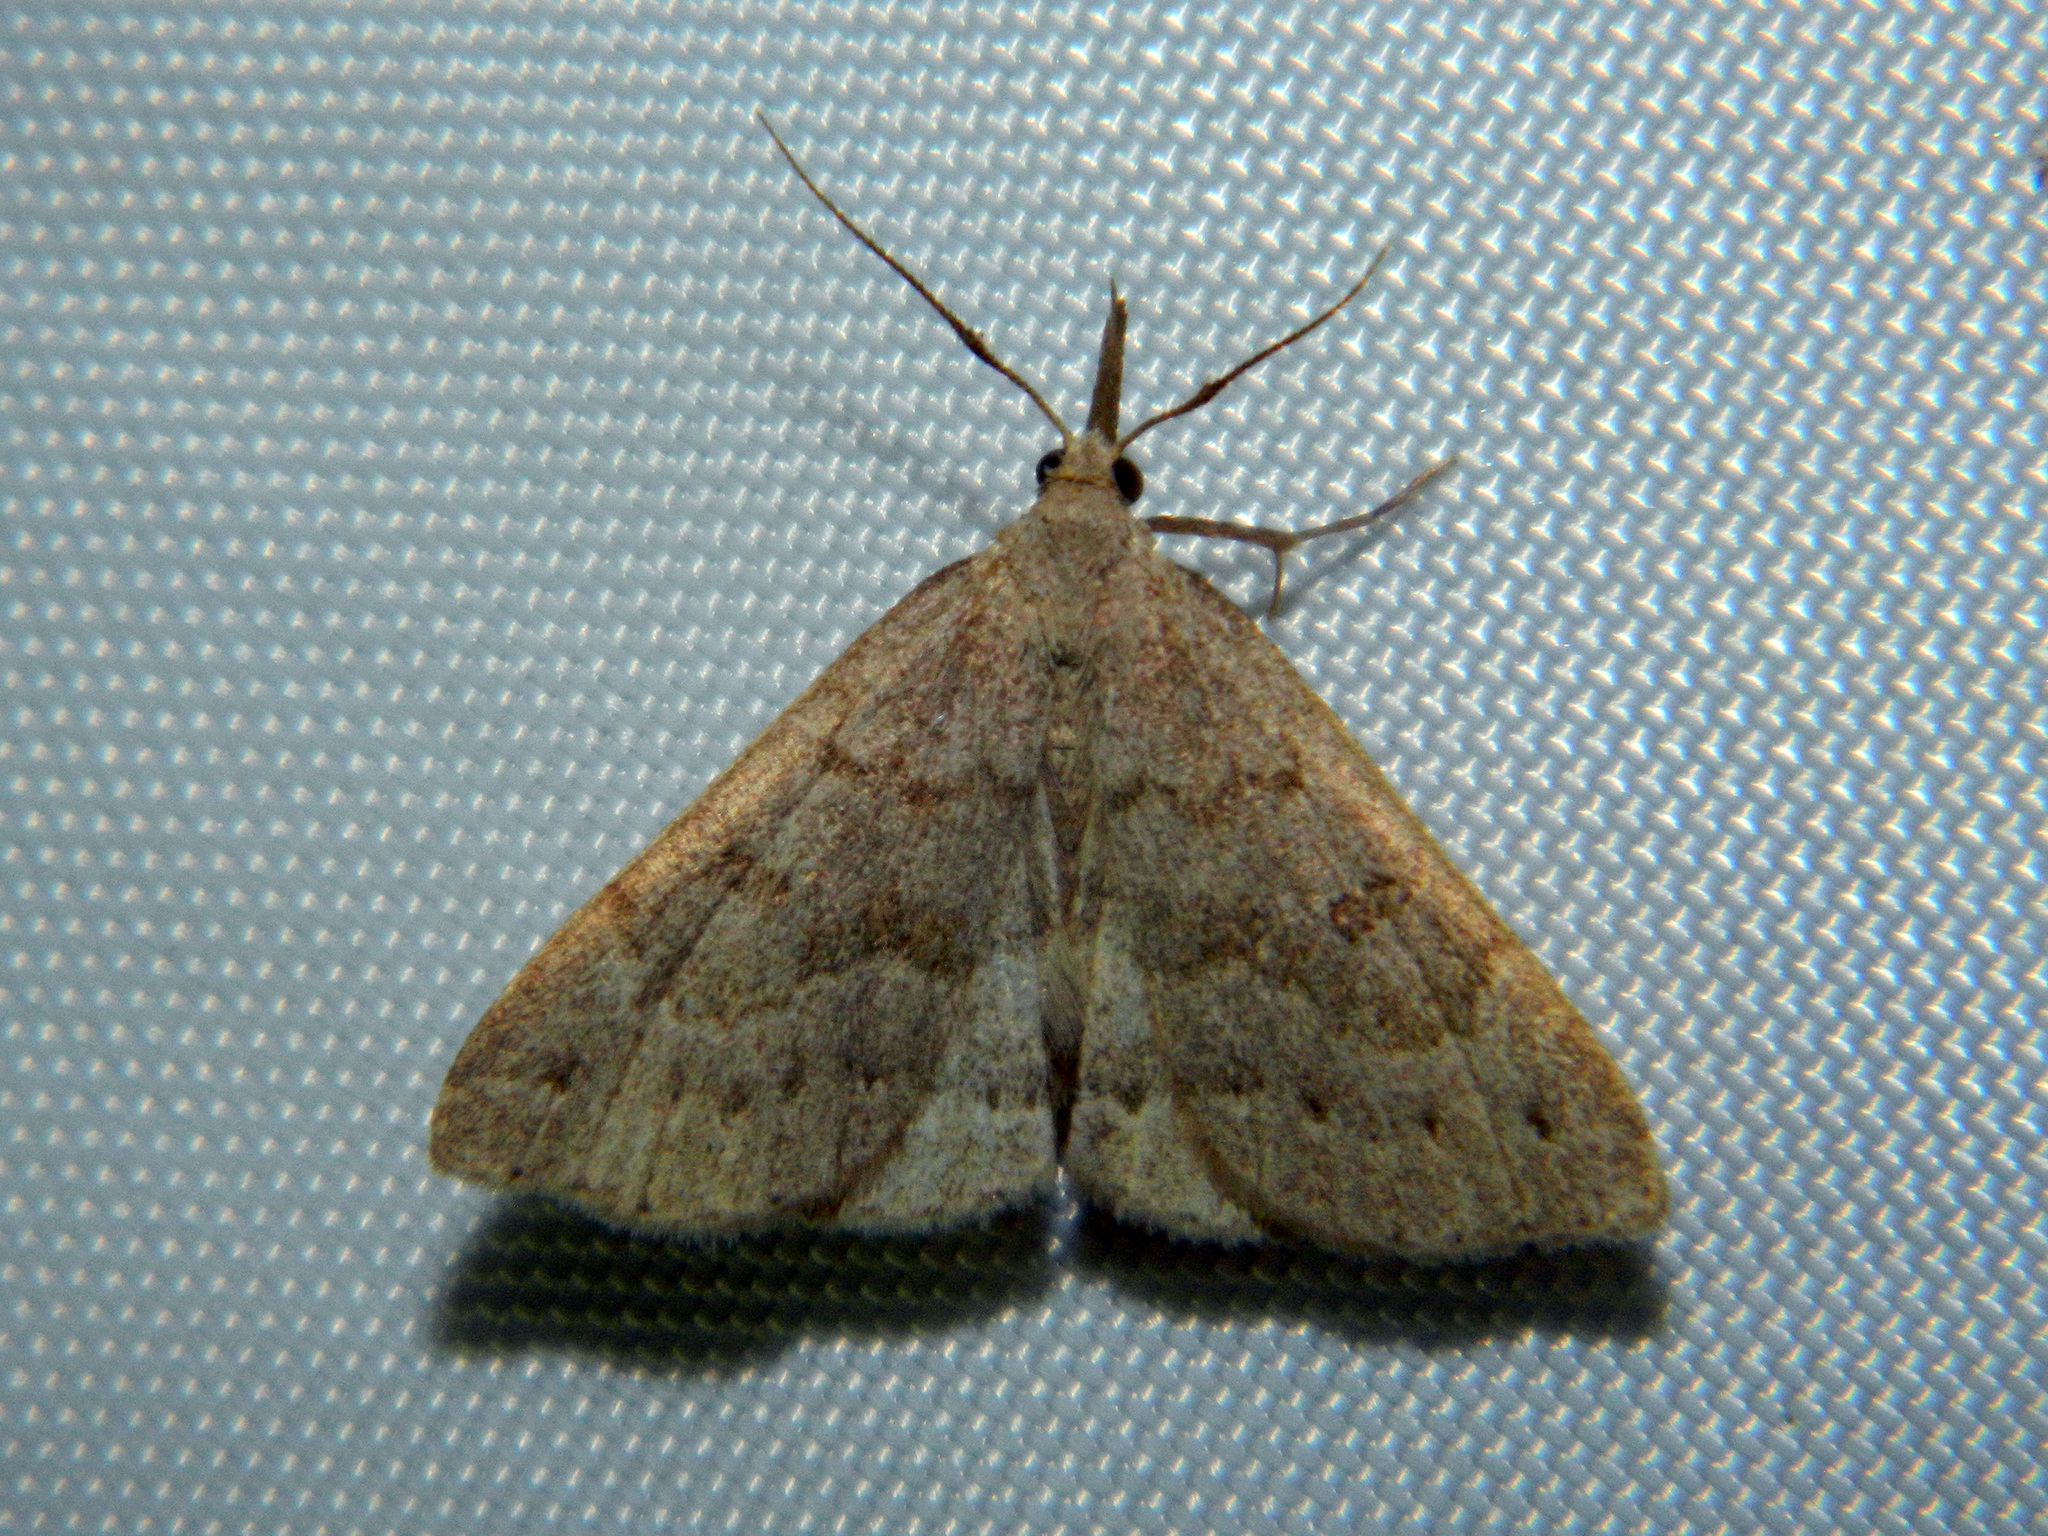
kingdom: Animalia
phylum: Arthropoda
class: Insecta
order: Lepidoptera
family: Erebidae
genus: Macrochilo
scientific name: Macrochilo morbidalis
